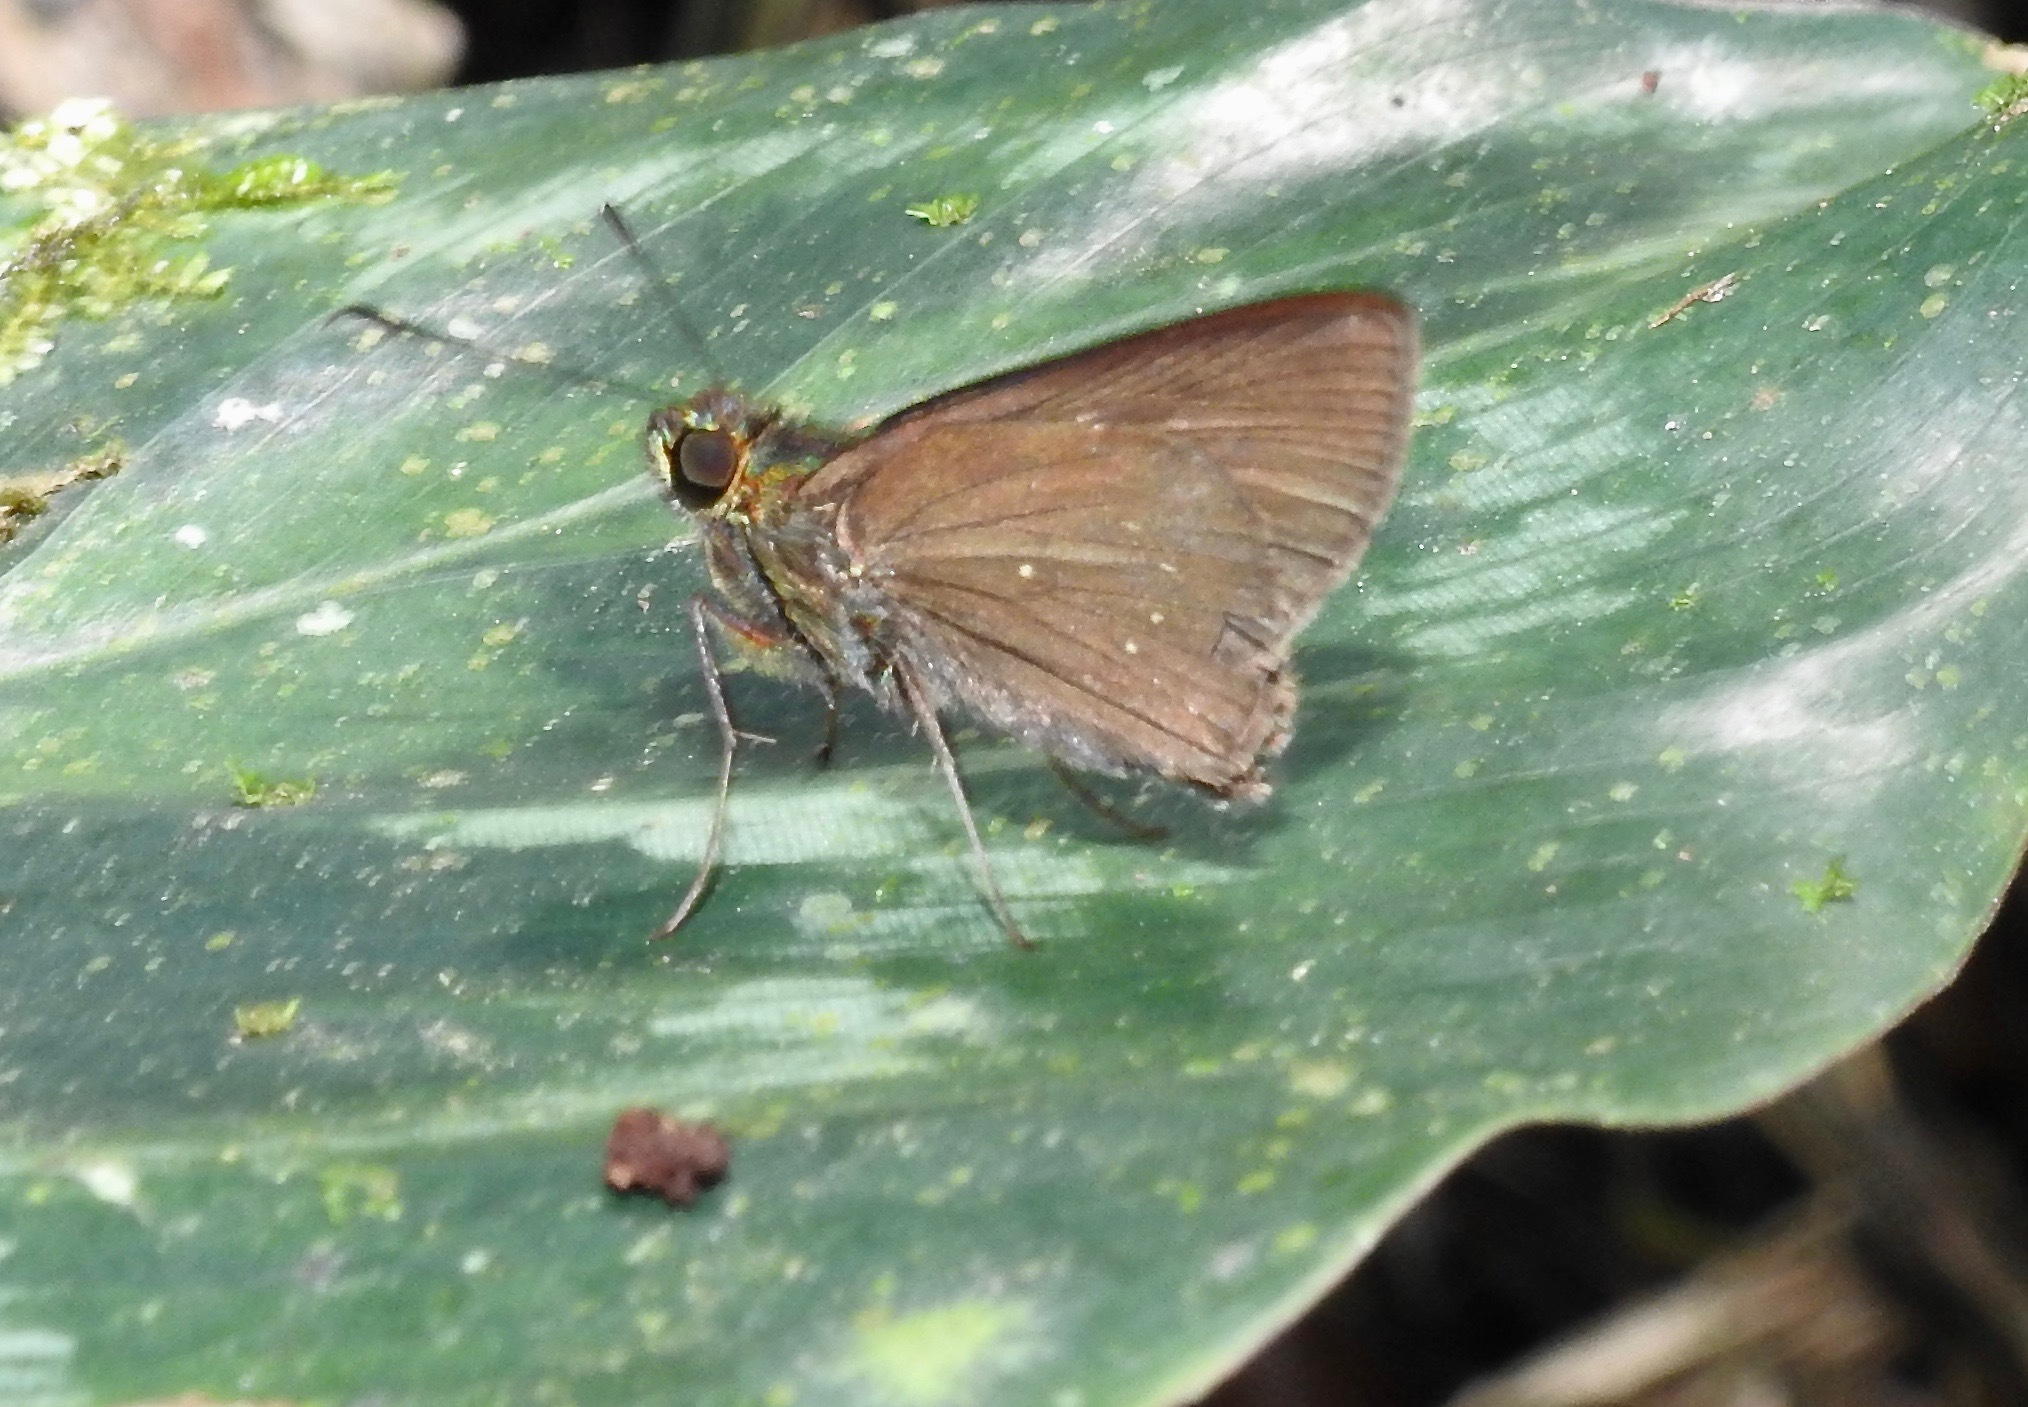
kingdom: Animalia
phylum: Arthropoda
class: Insecta
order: Lepidoptera
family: Hesperiidae
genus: Arita
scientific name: Arita arita
